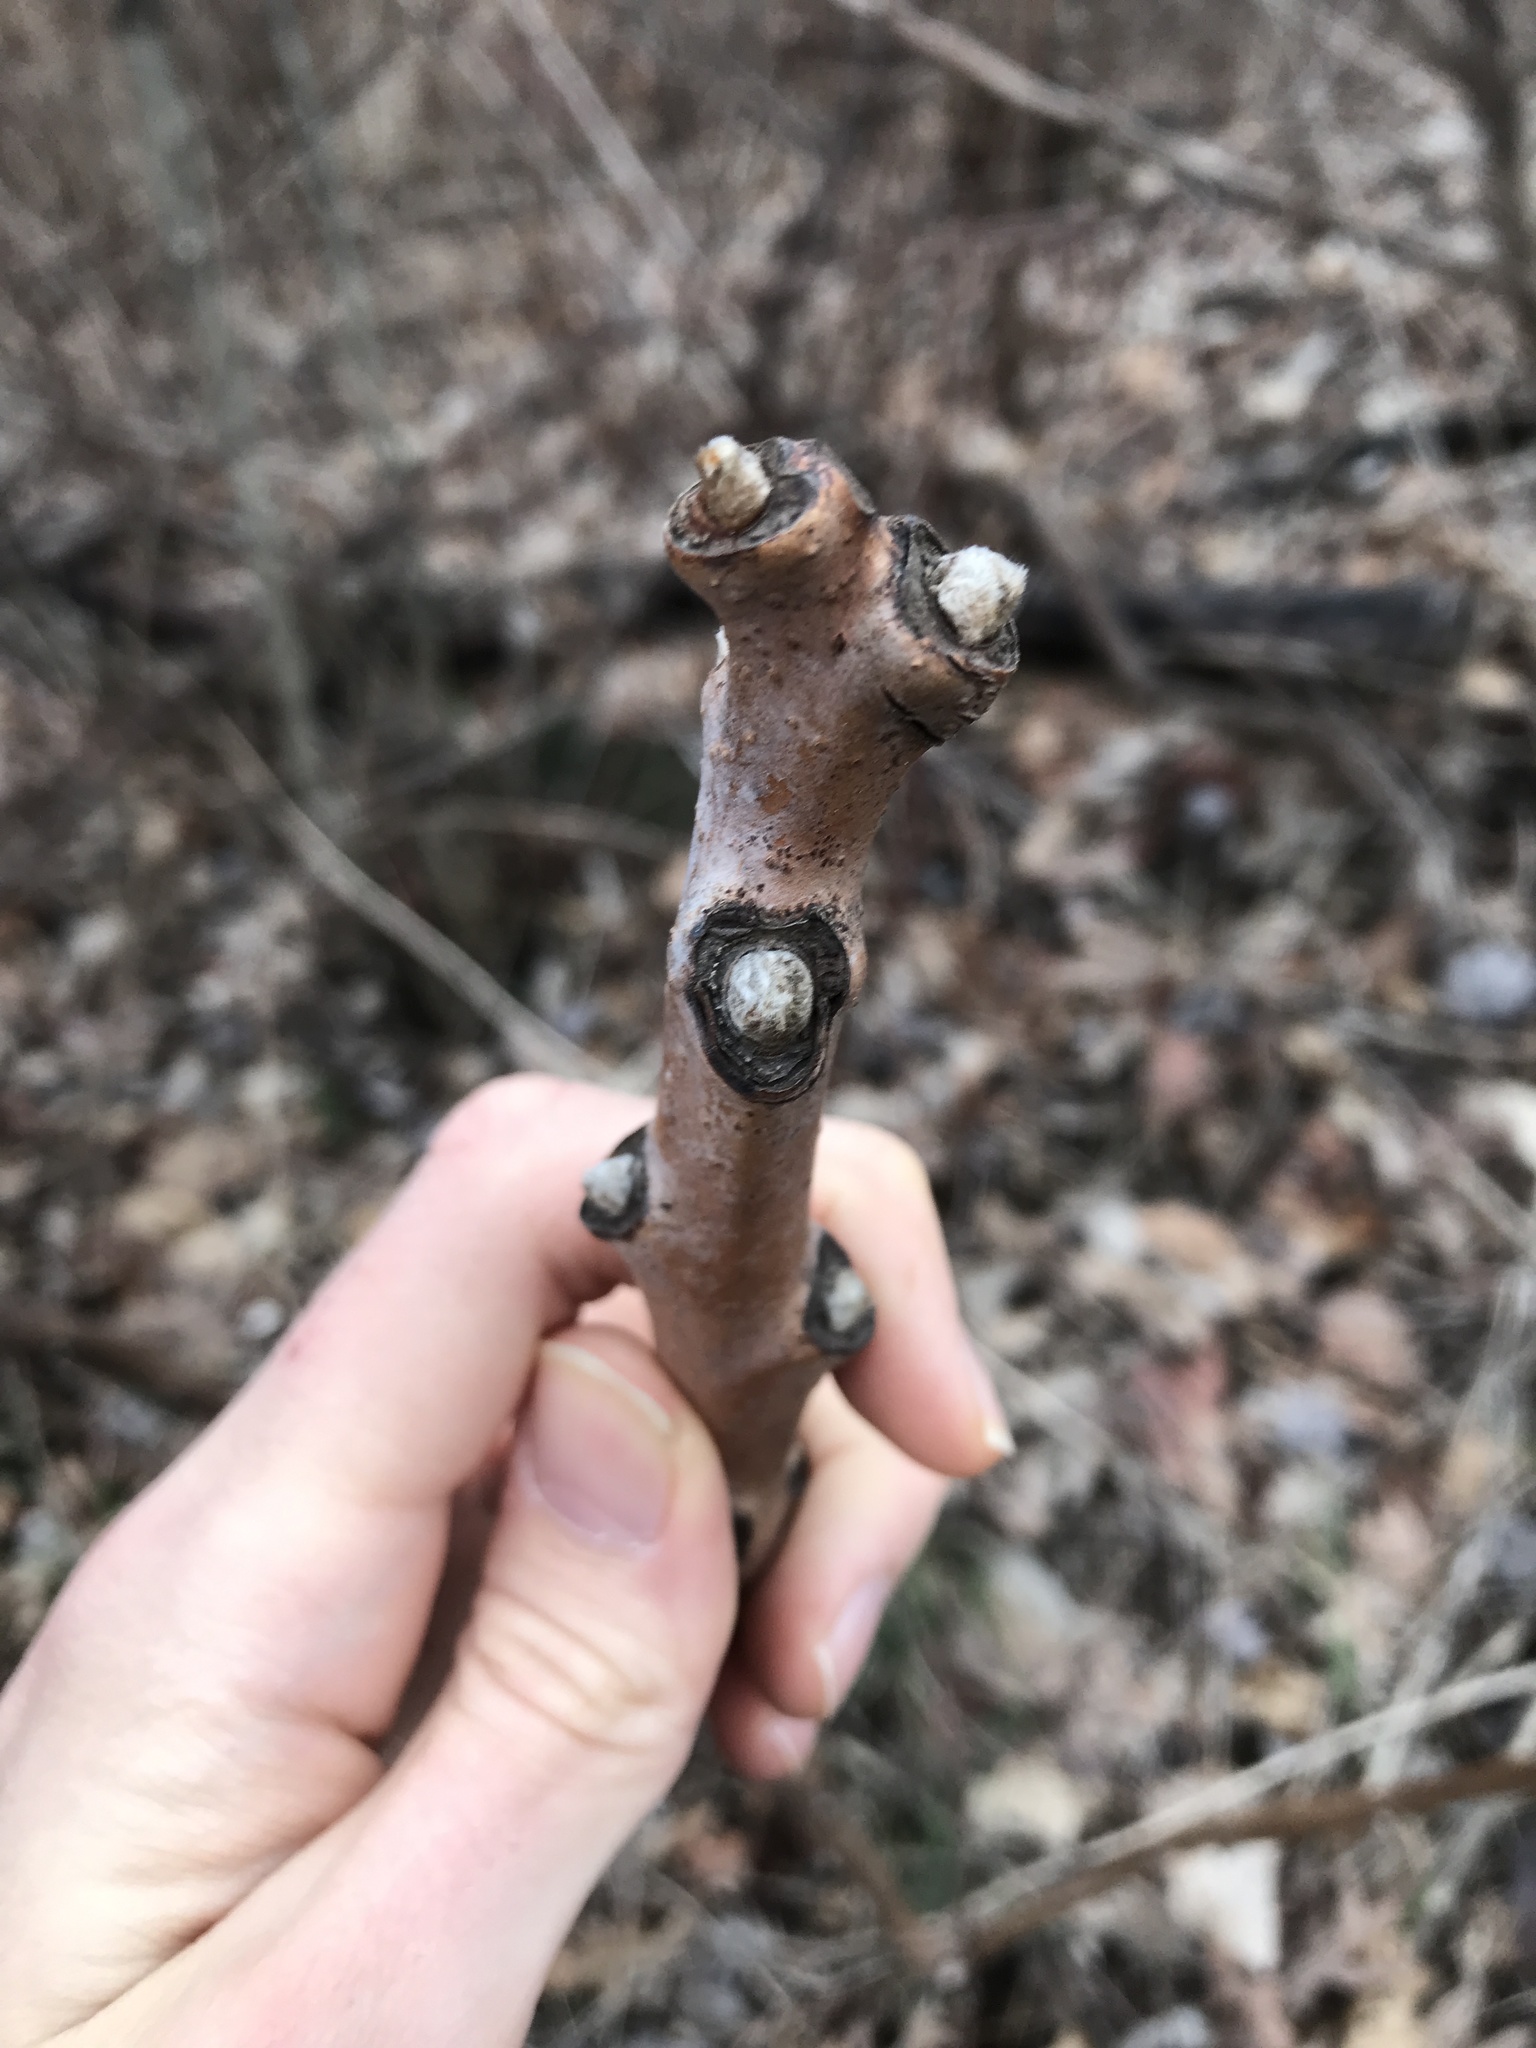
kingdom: Plantae
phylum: Tracheophyta
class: Magnoliopsida
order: Sapindales
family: Anacardiaceae
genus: Rhus
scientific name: Rhus glabra
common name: Scarlet sumac
